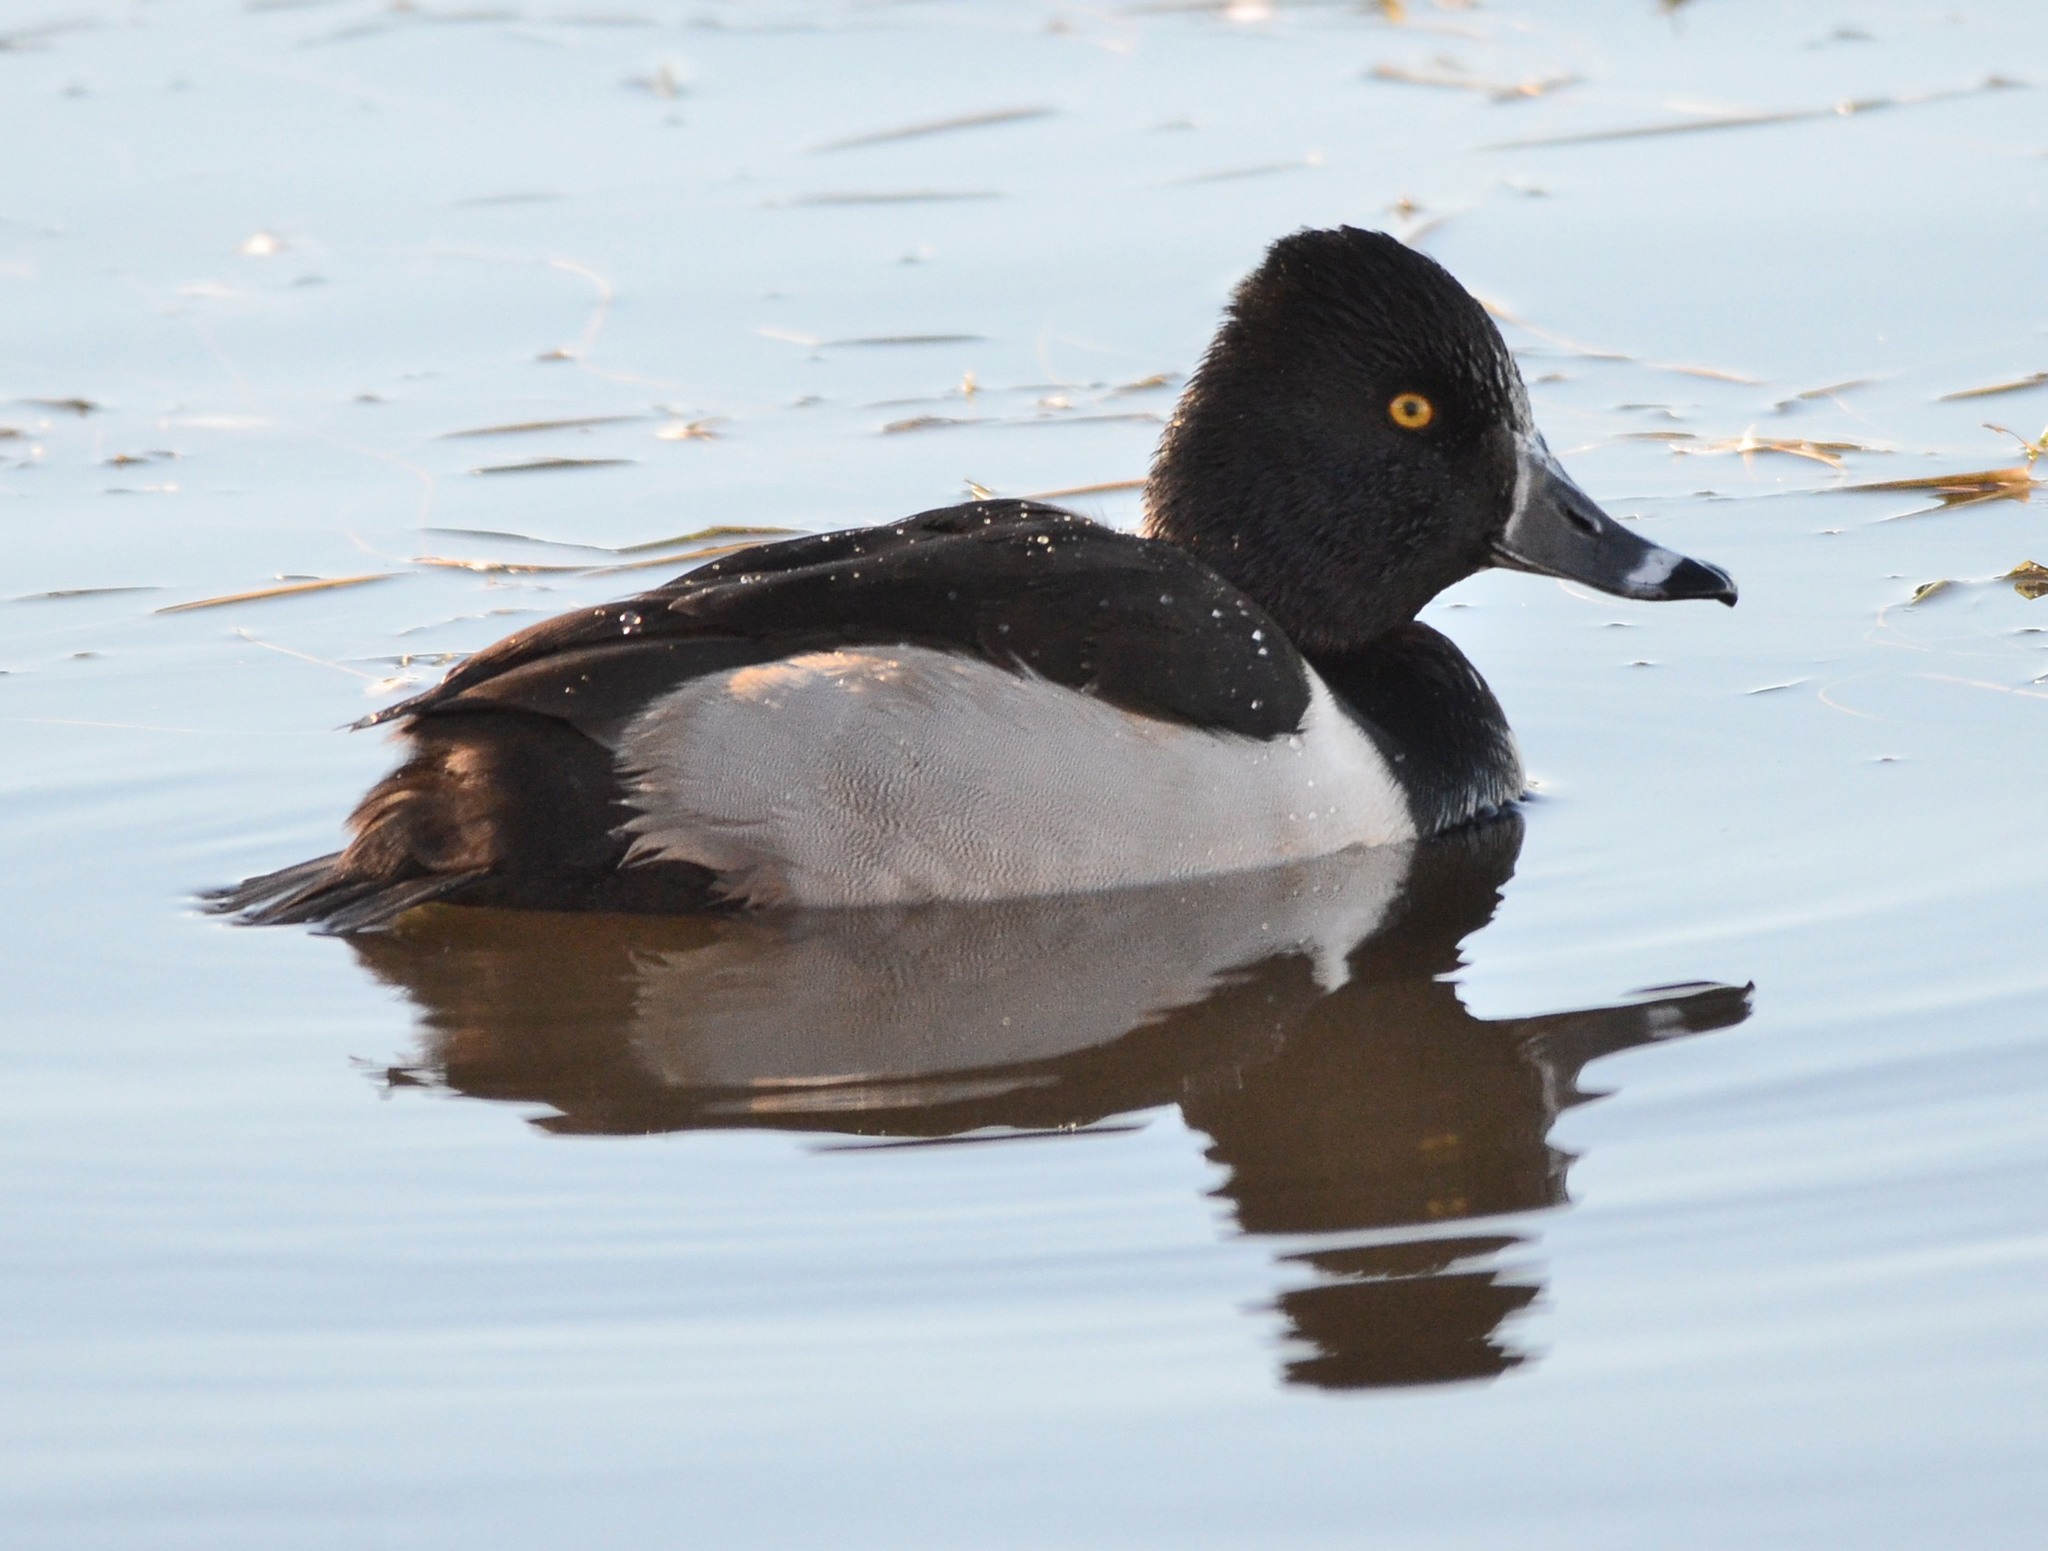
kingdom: Animalia
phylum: Chordata
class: Aves
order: Anseriformes
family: Anatidae
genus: Aythya
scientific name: Aythya collaris
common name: Ring-necked duck
